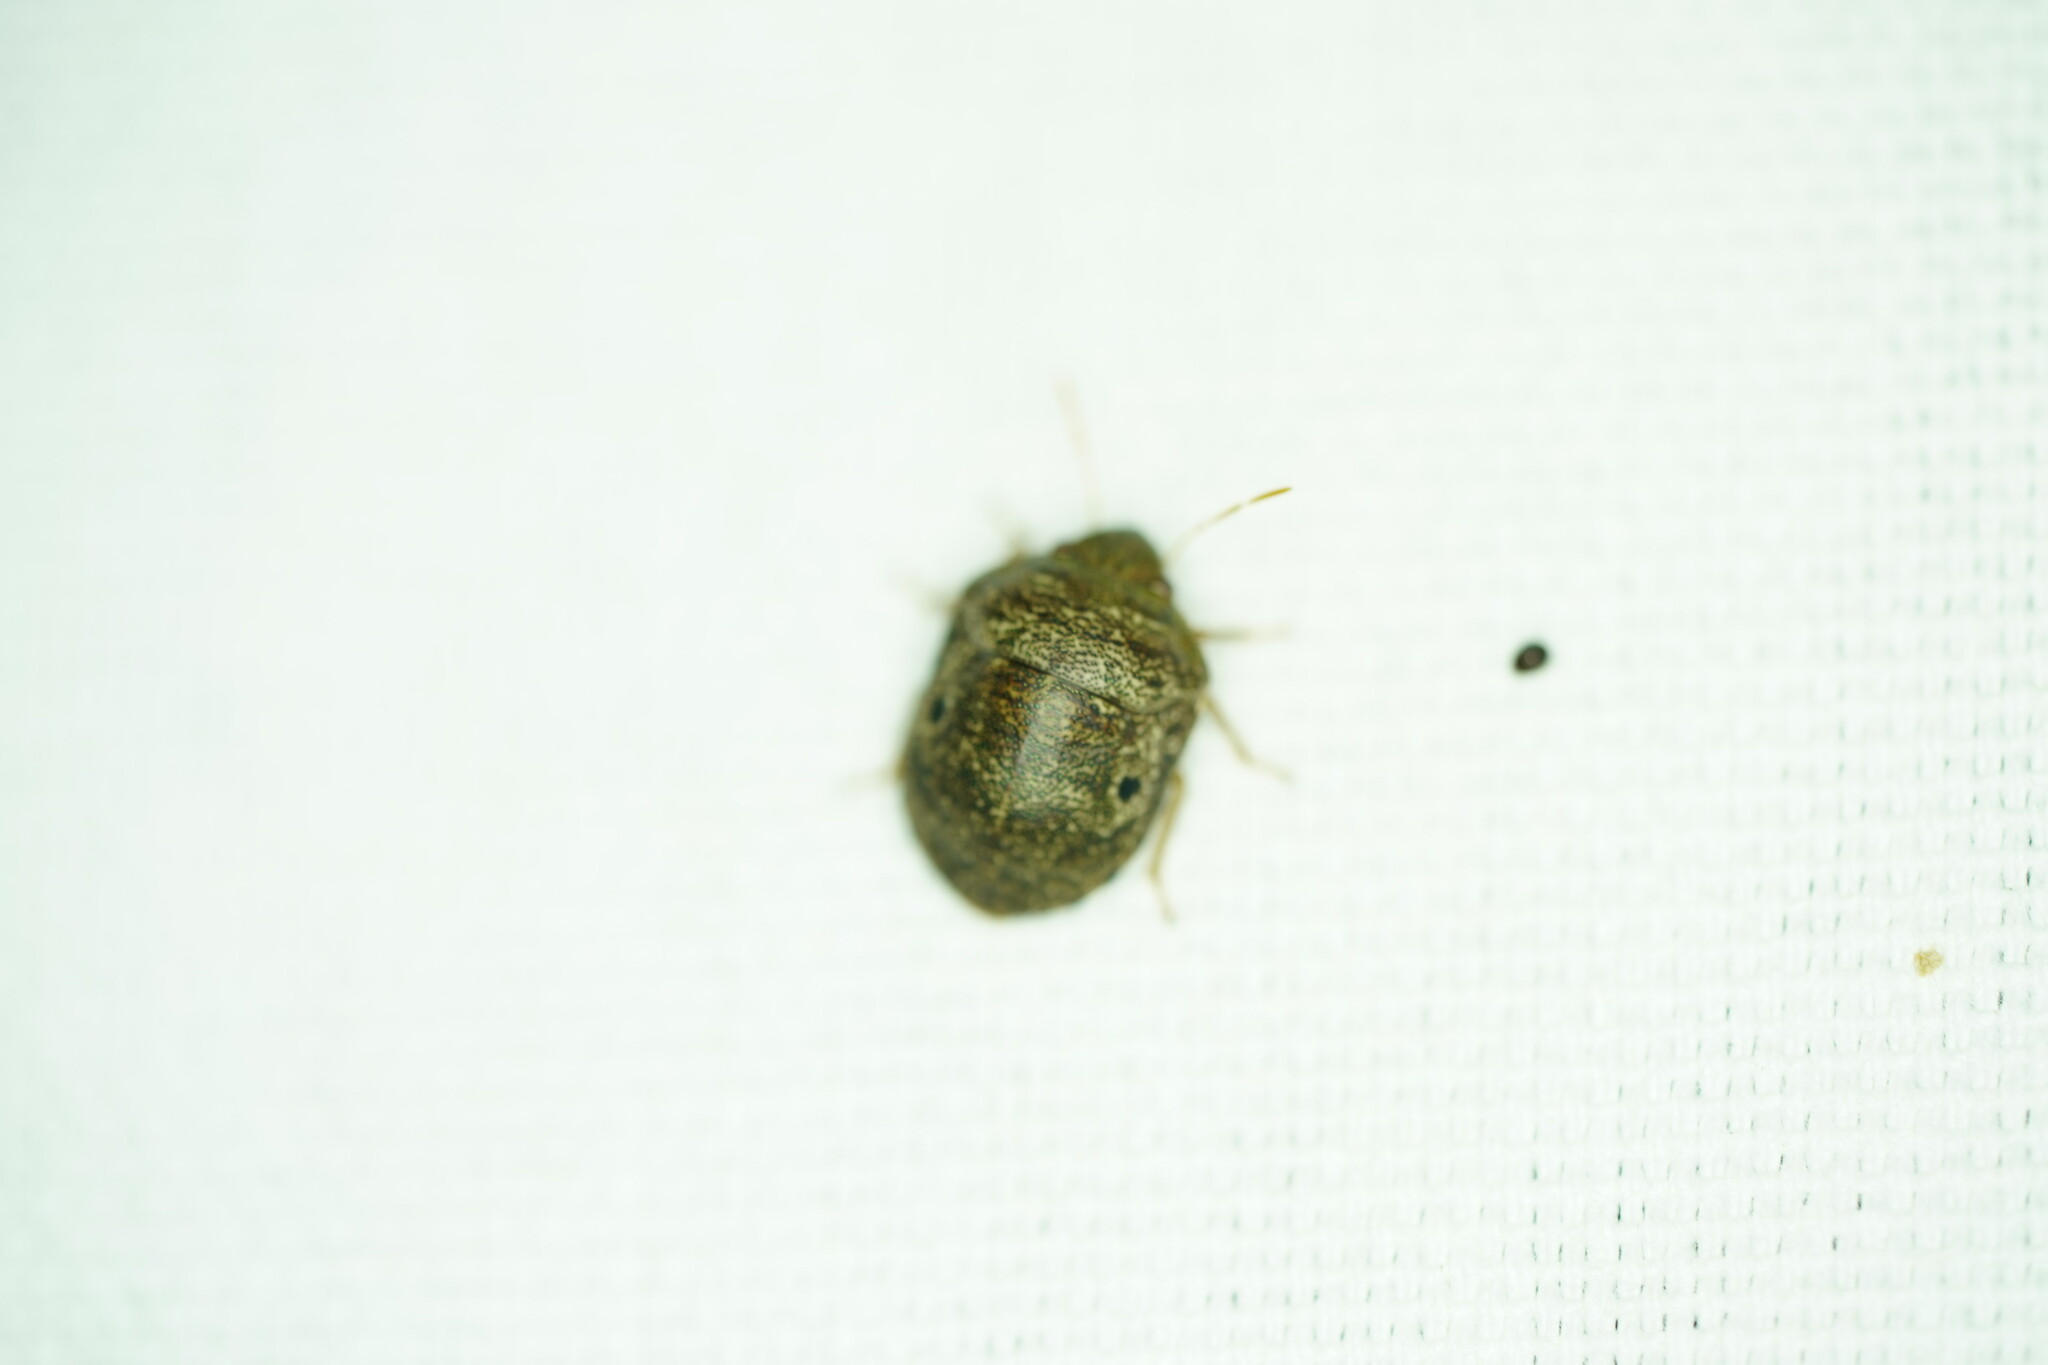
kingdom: Animalia
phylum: Arthropoda
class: Insecta
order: Hemiptera
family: Scutelleridae
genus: Diolcus
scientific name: Diolcus chrysorrhoeus
